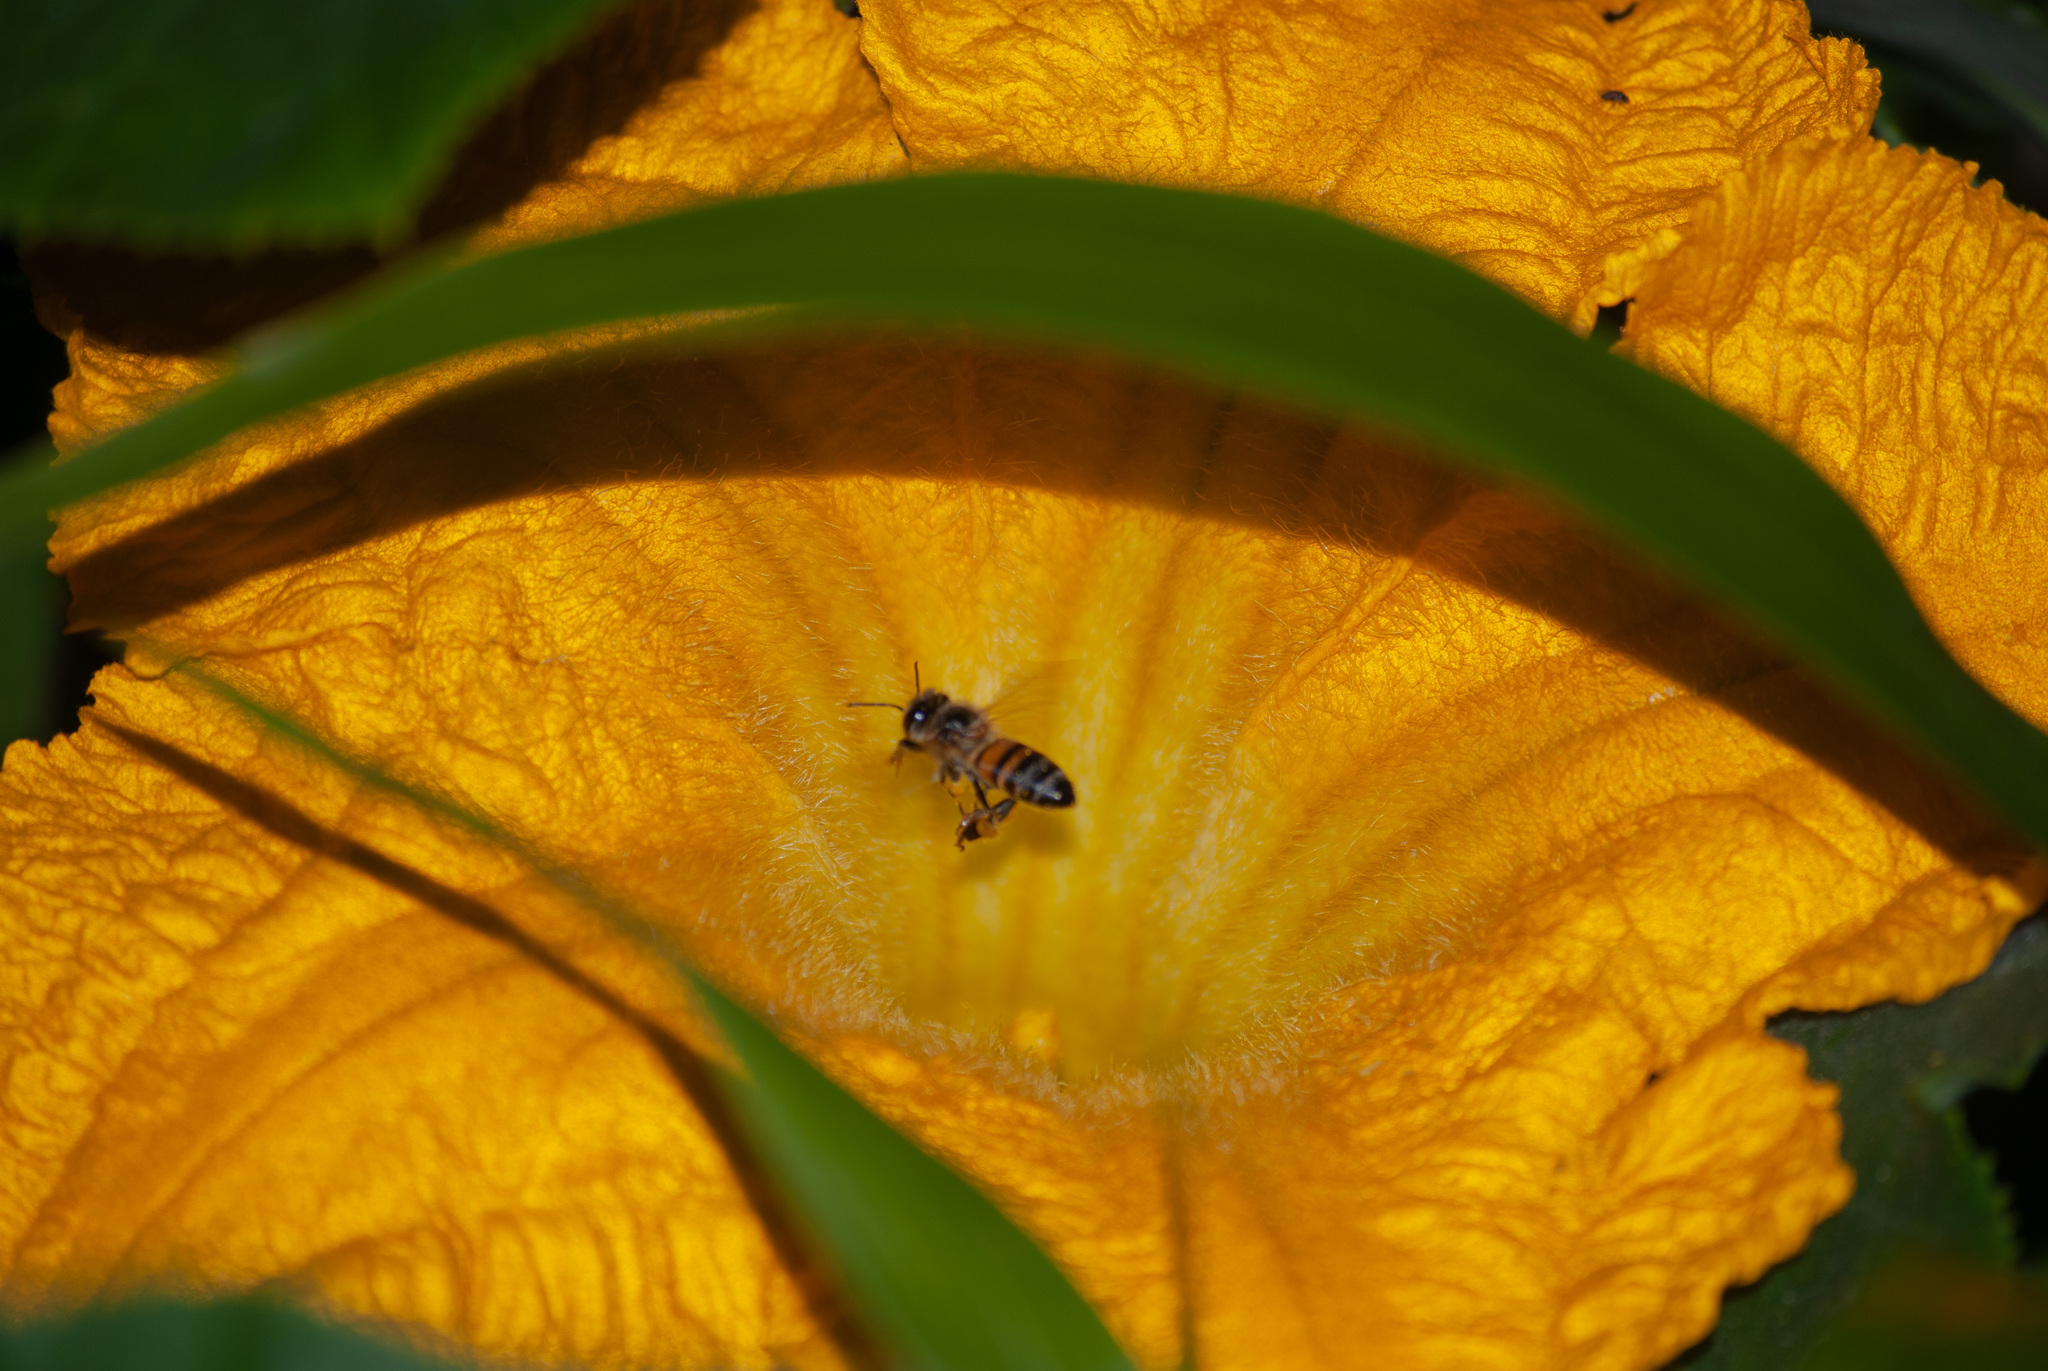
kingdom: Animalia
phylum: Arthropoda
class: Insecta
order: Hymenoptera
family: Apidae
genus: Apis
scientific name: Apis mellifera
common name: Honey bee
